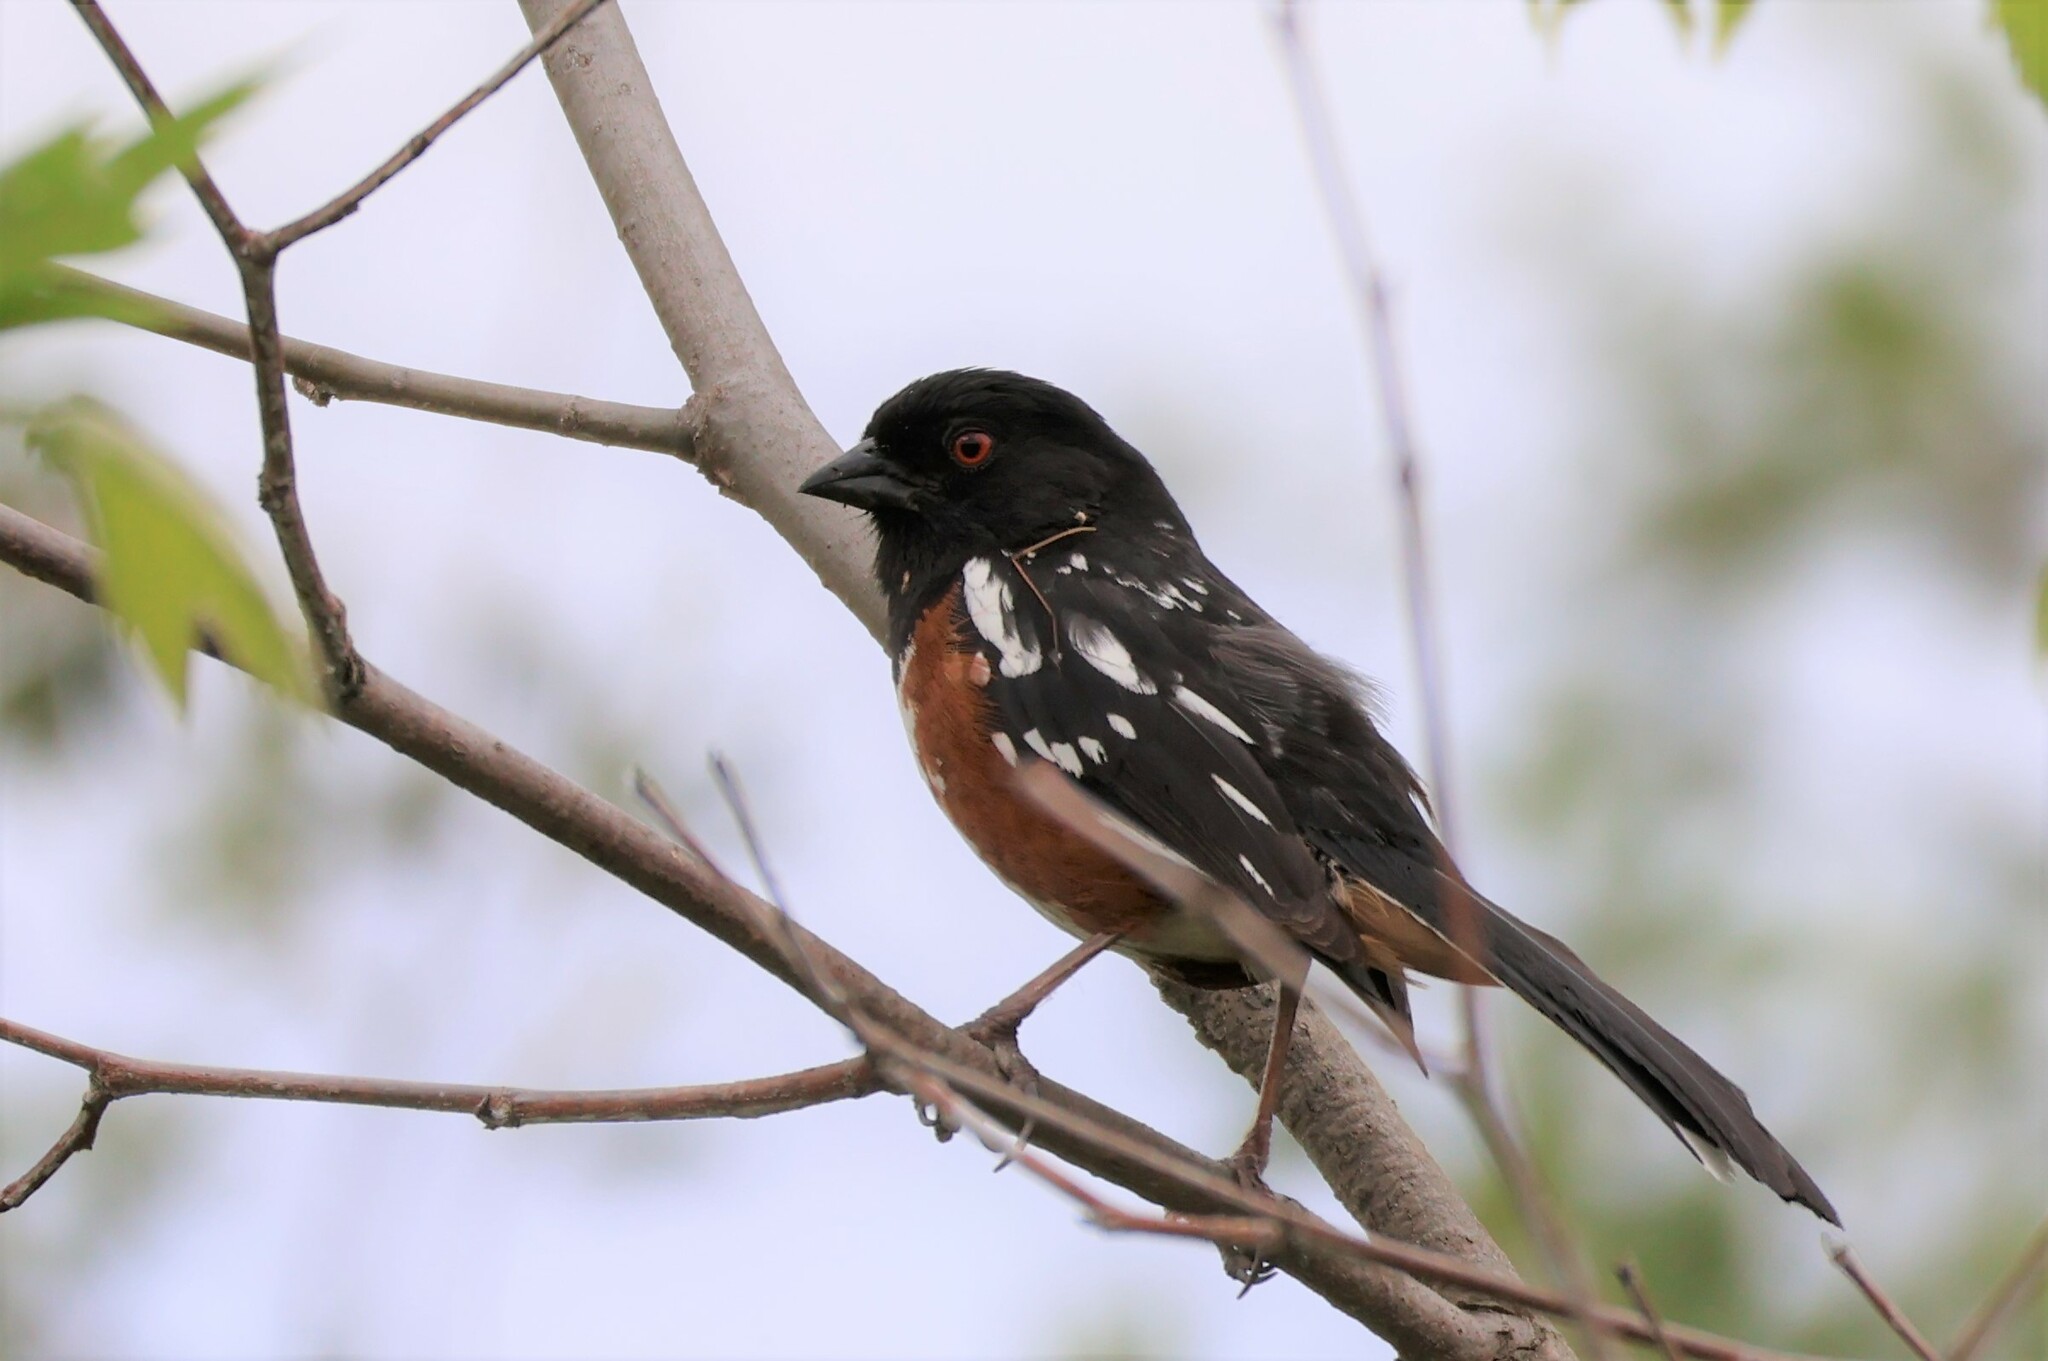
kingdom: Animalia
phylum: Chordata
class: Aves
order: Passeriformes
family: Passerellidae
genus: Pipilo
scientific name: Pipilo maculatus
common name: Spotted towhee
